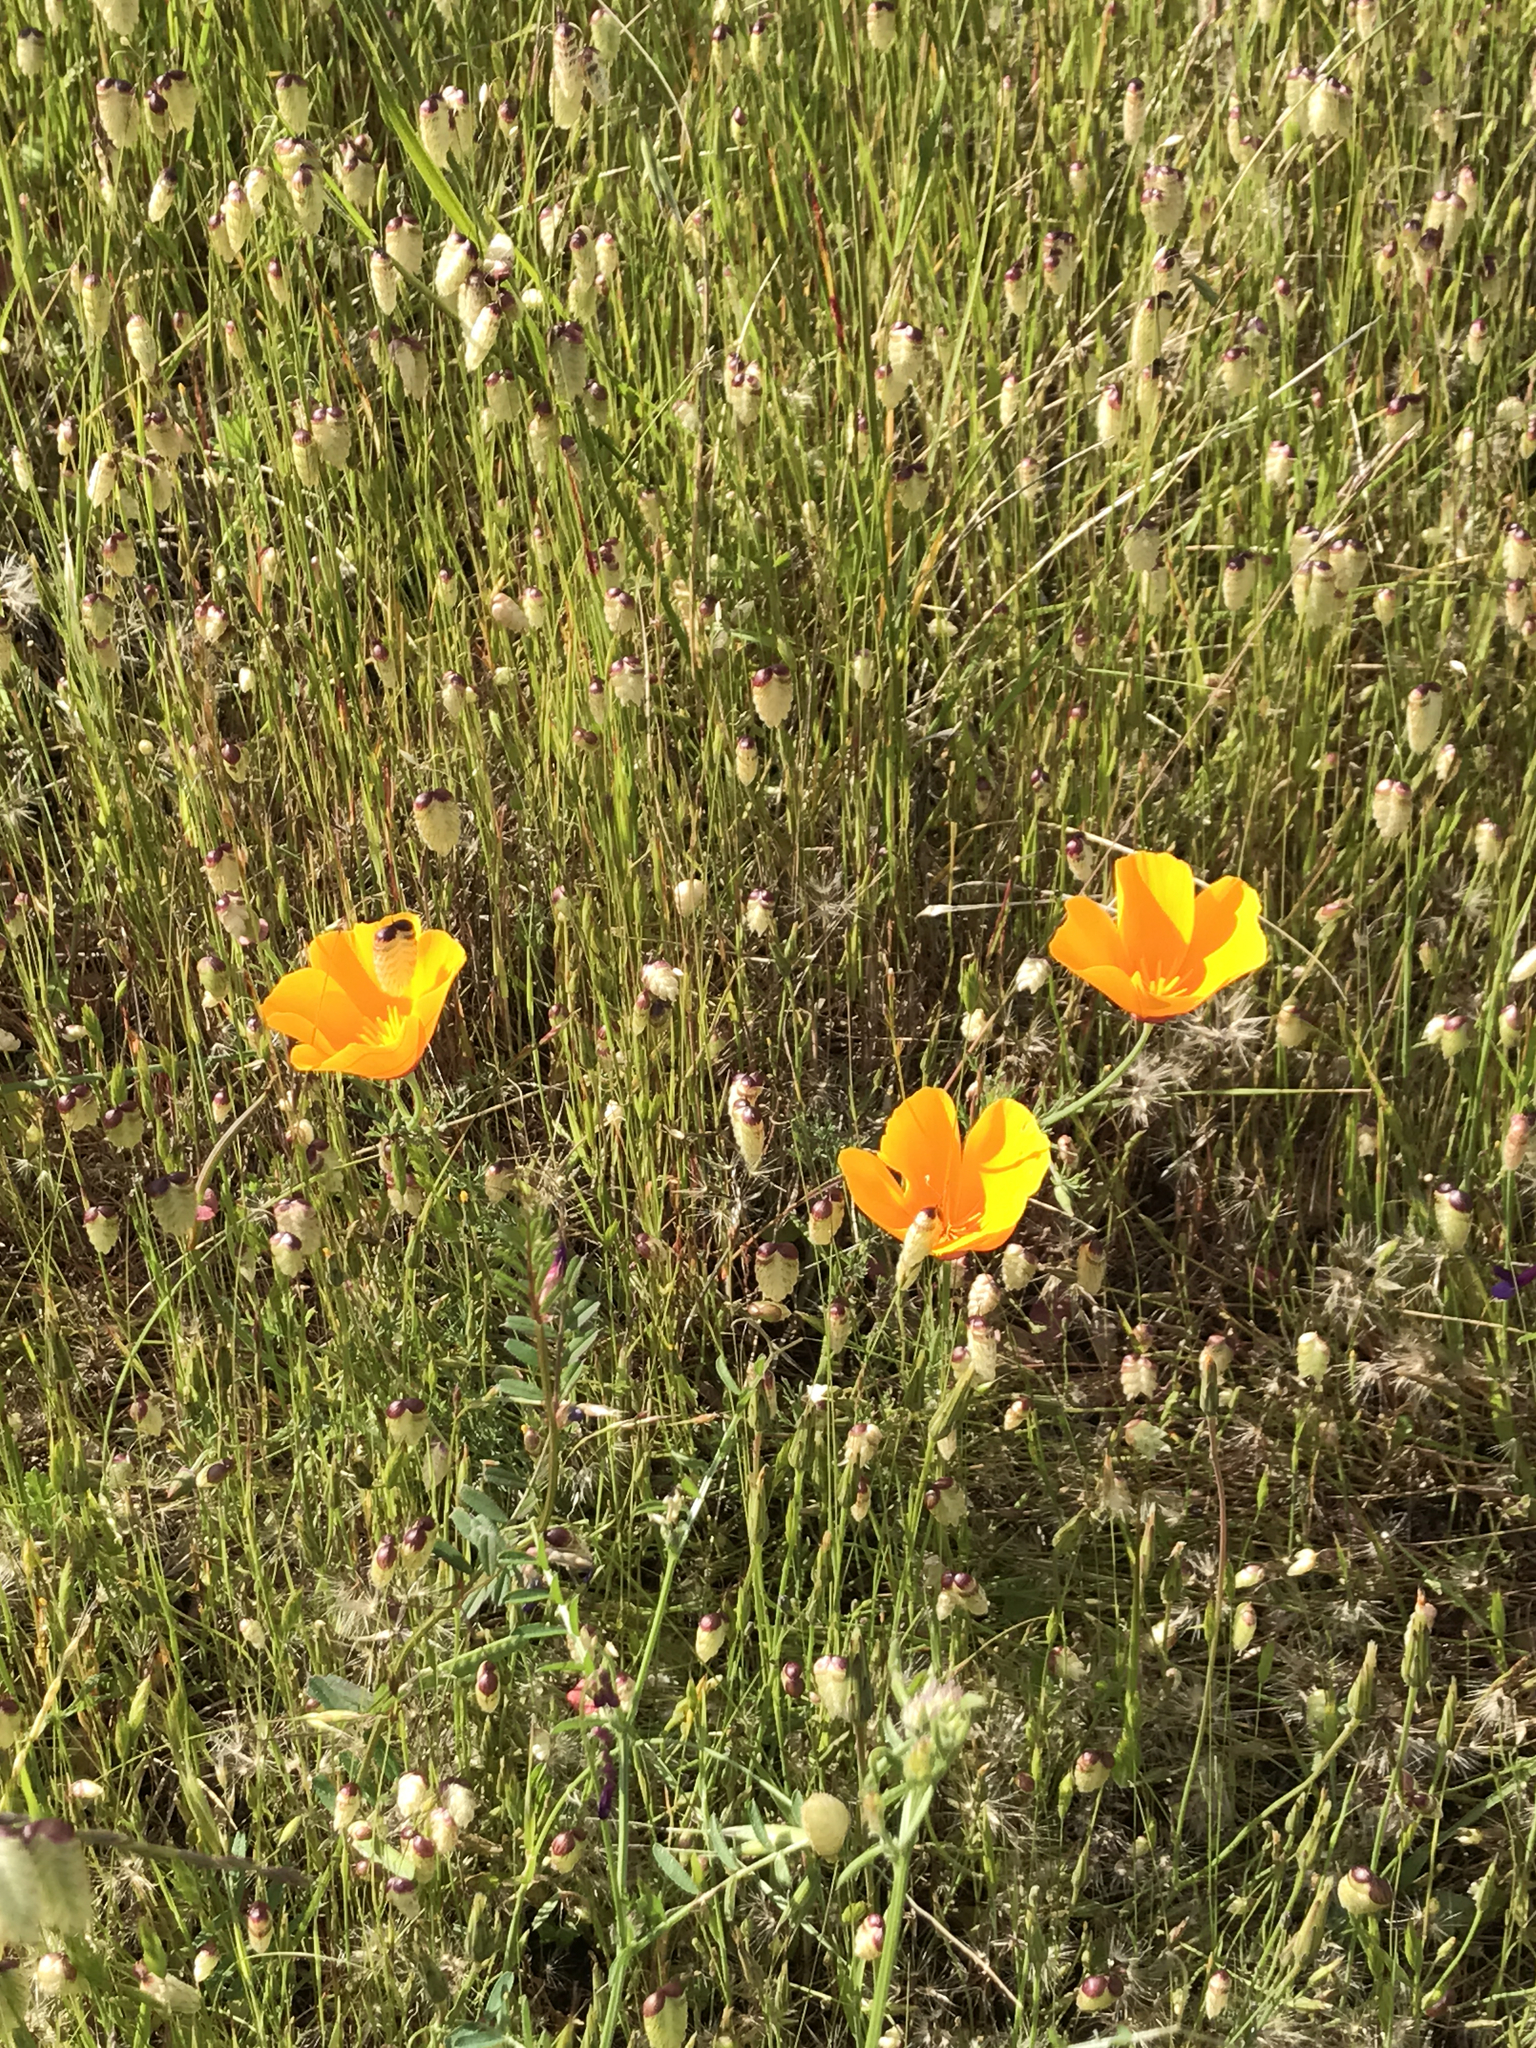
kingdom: Plantae
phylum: Tracheophyta
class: Magnoliopsida
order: Ranunculales
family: Papaveraceae
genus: Eschscholzia
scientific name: Eschscholzia californica
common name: California poppy
